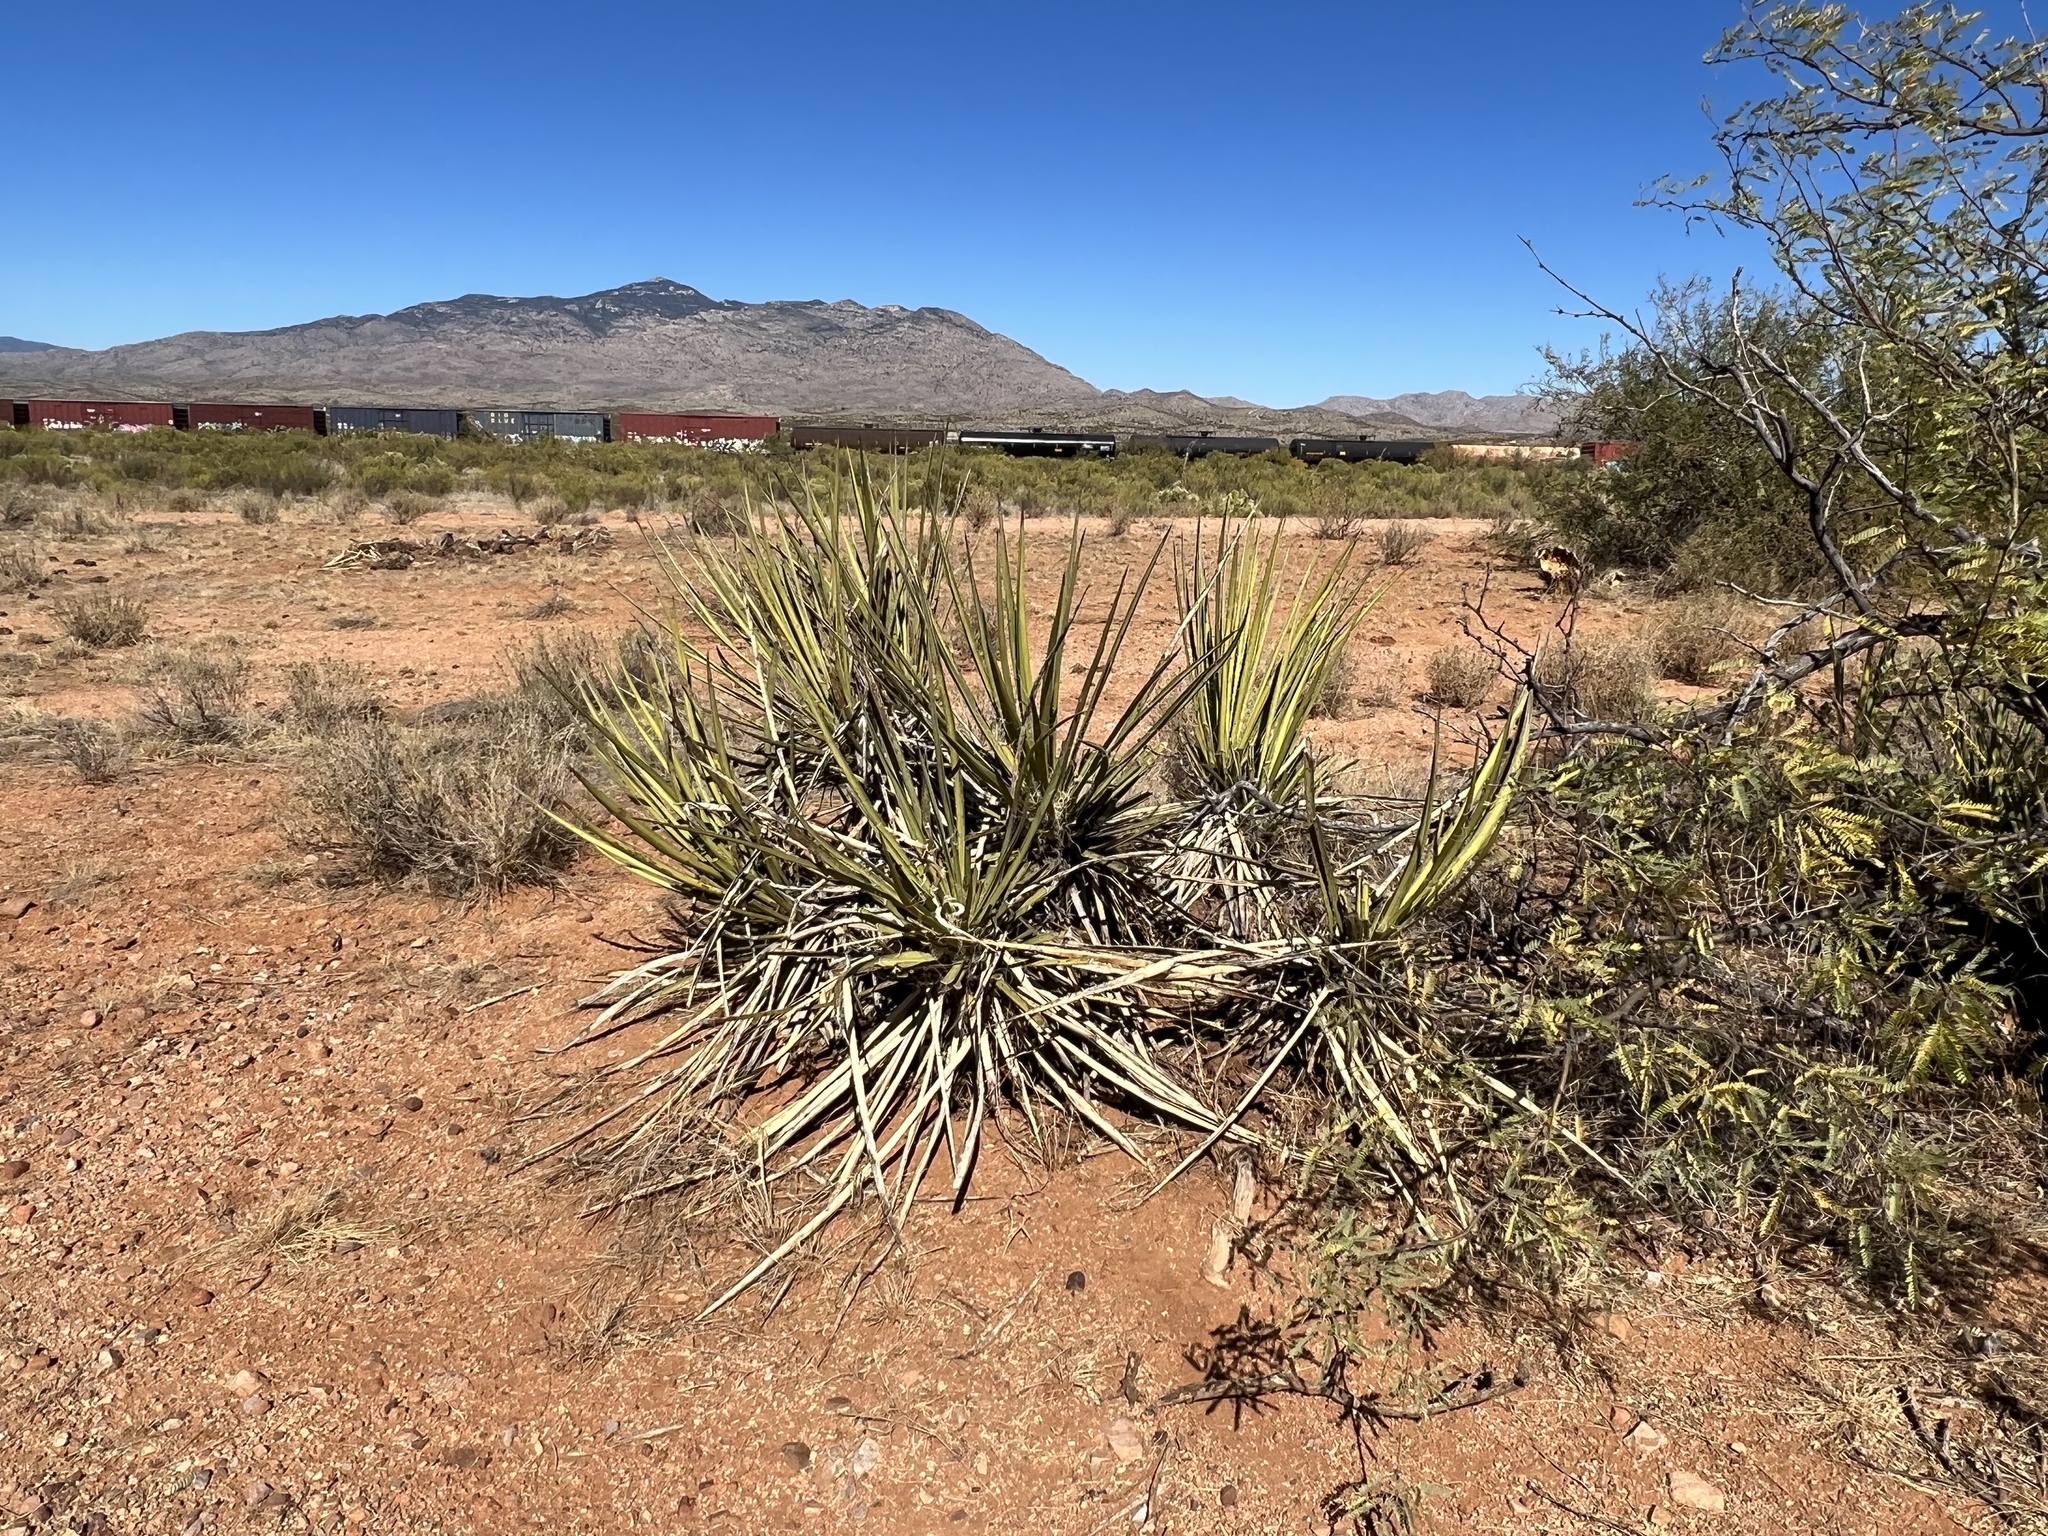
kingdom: Plantae
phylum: Tracheophyta
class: Liliopsida
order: Asparagales
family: Asparagaceae
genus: Yucca
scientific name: Yucca baccata
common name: Banana yucca
